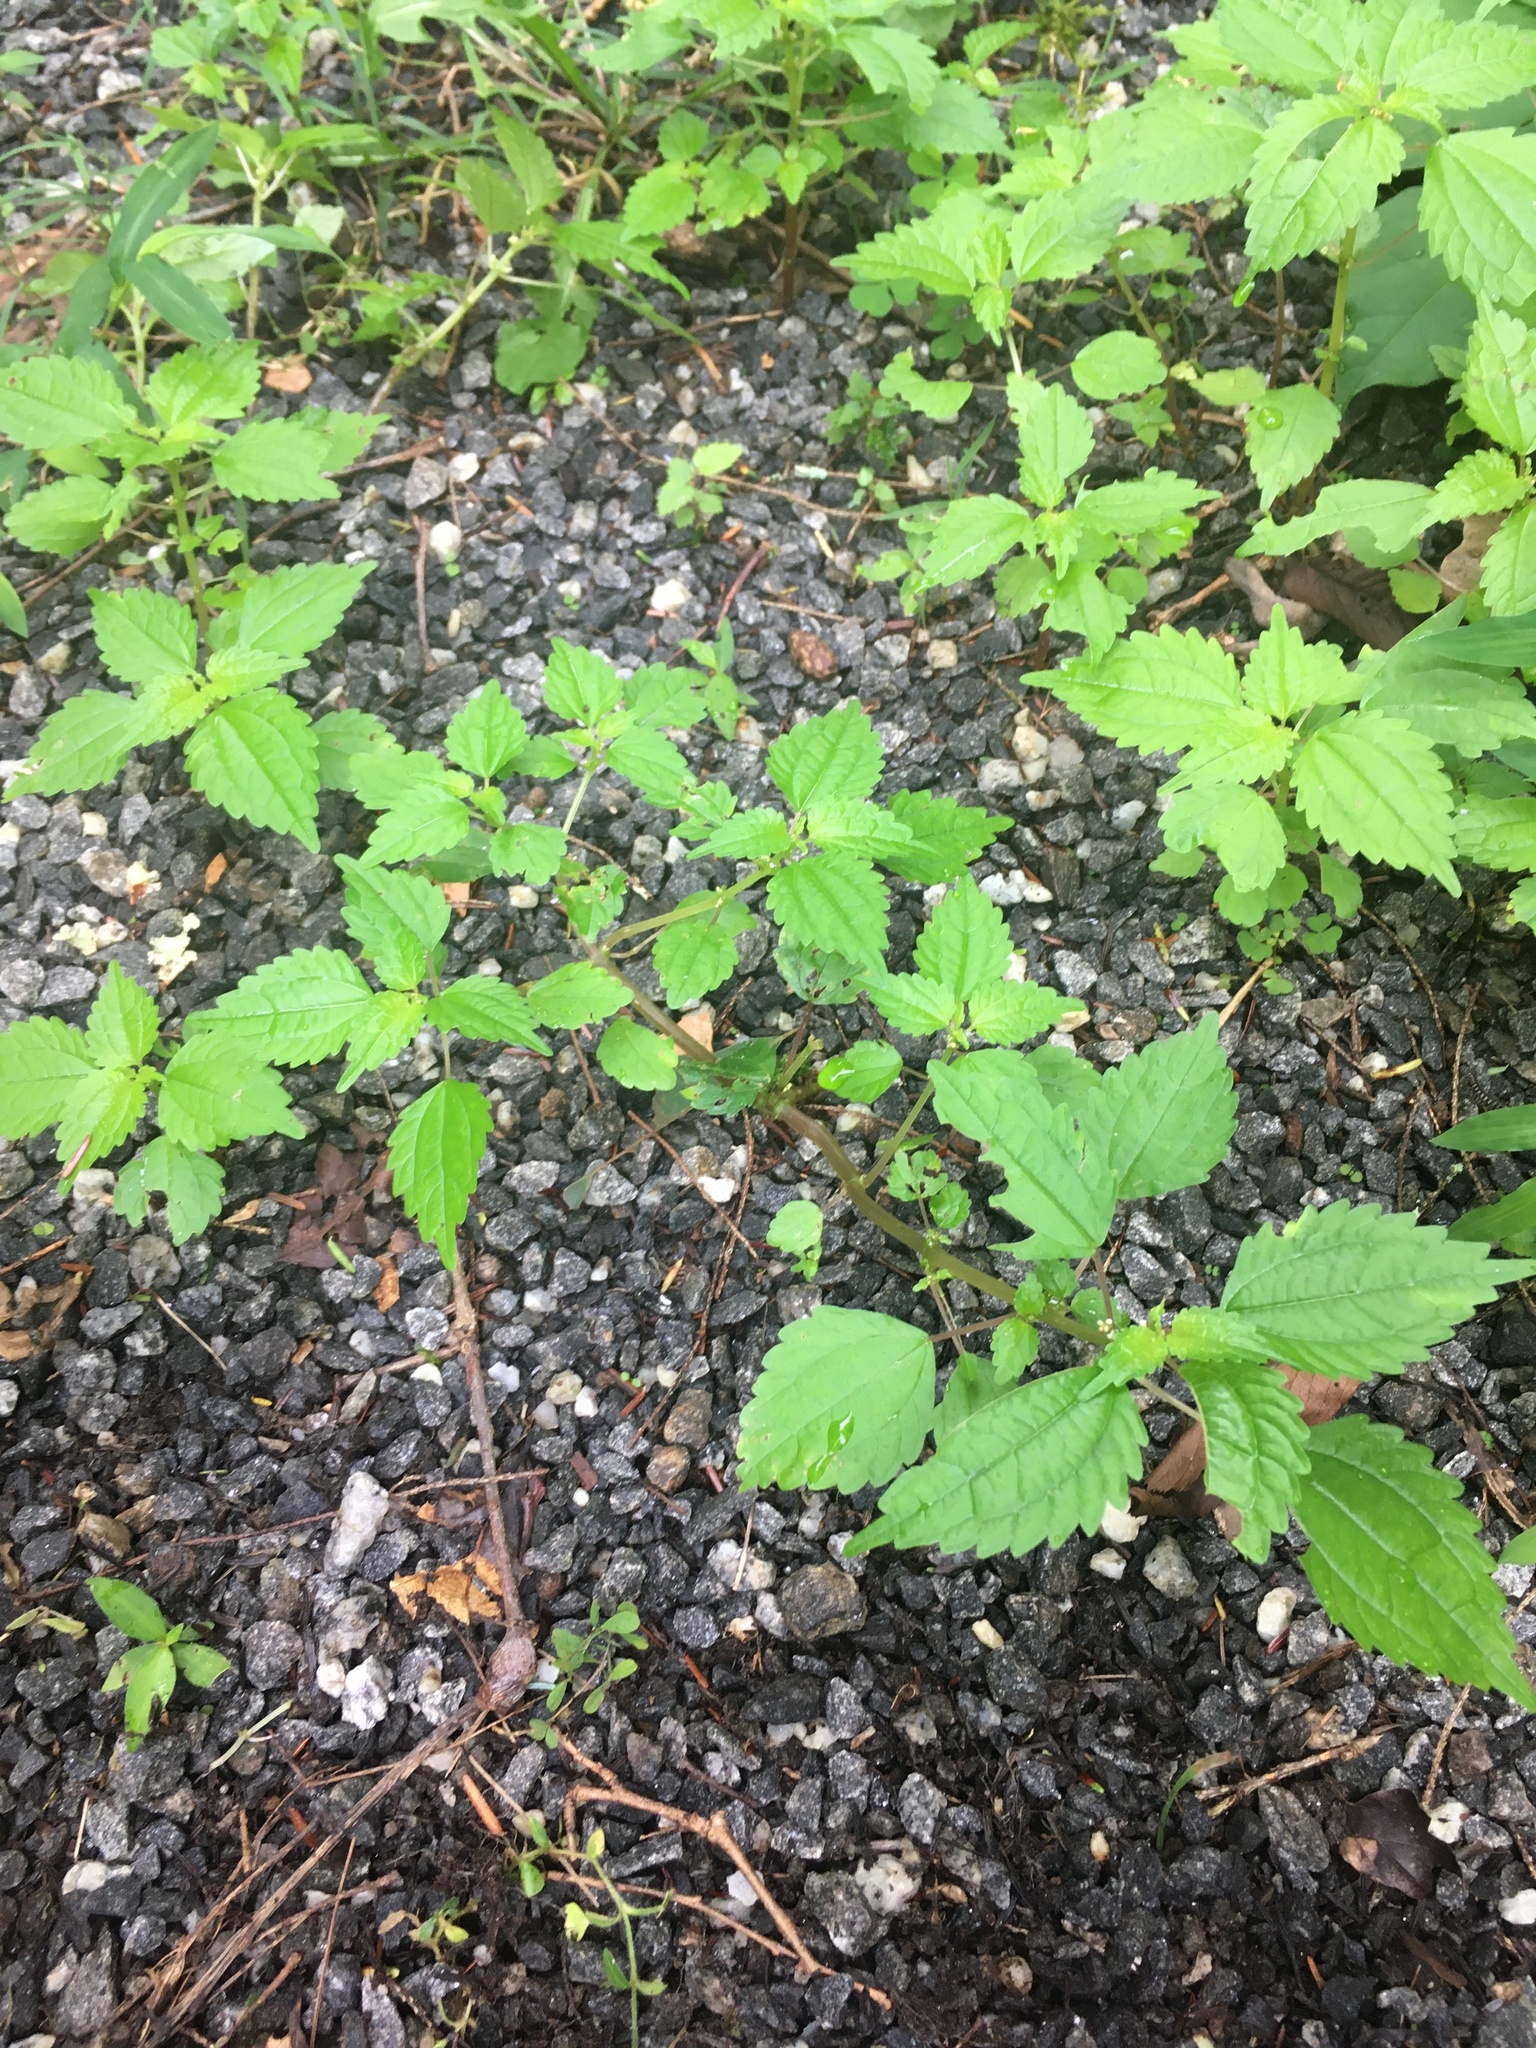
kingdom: Plantae
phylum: Tracheophyta
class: Magnoliopsida
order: Rosales
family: Urticaceae
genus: Pilea
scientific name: Pilea pumila
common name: Clearweed
